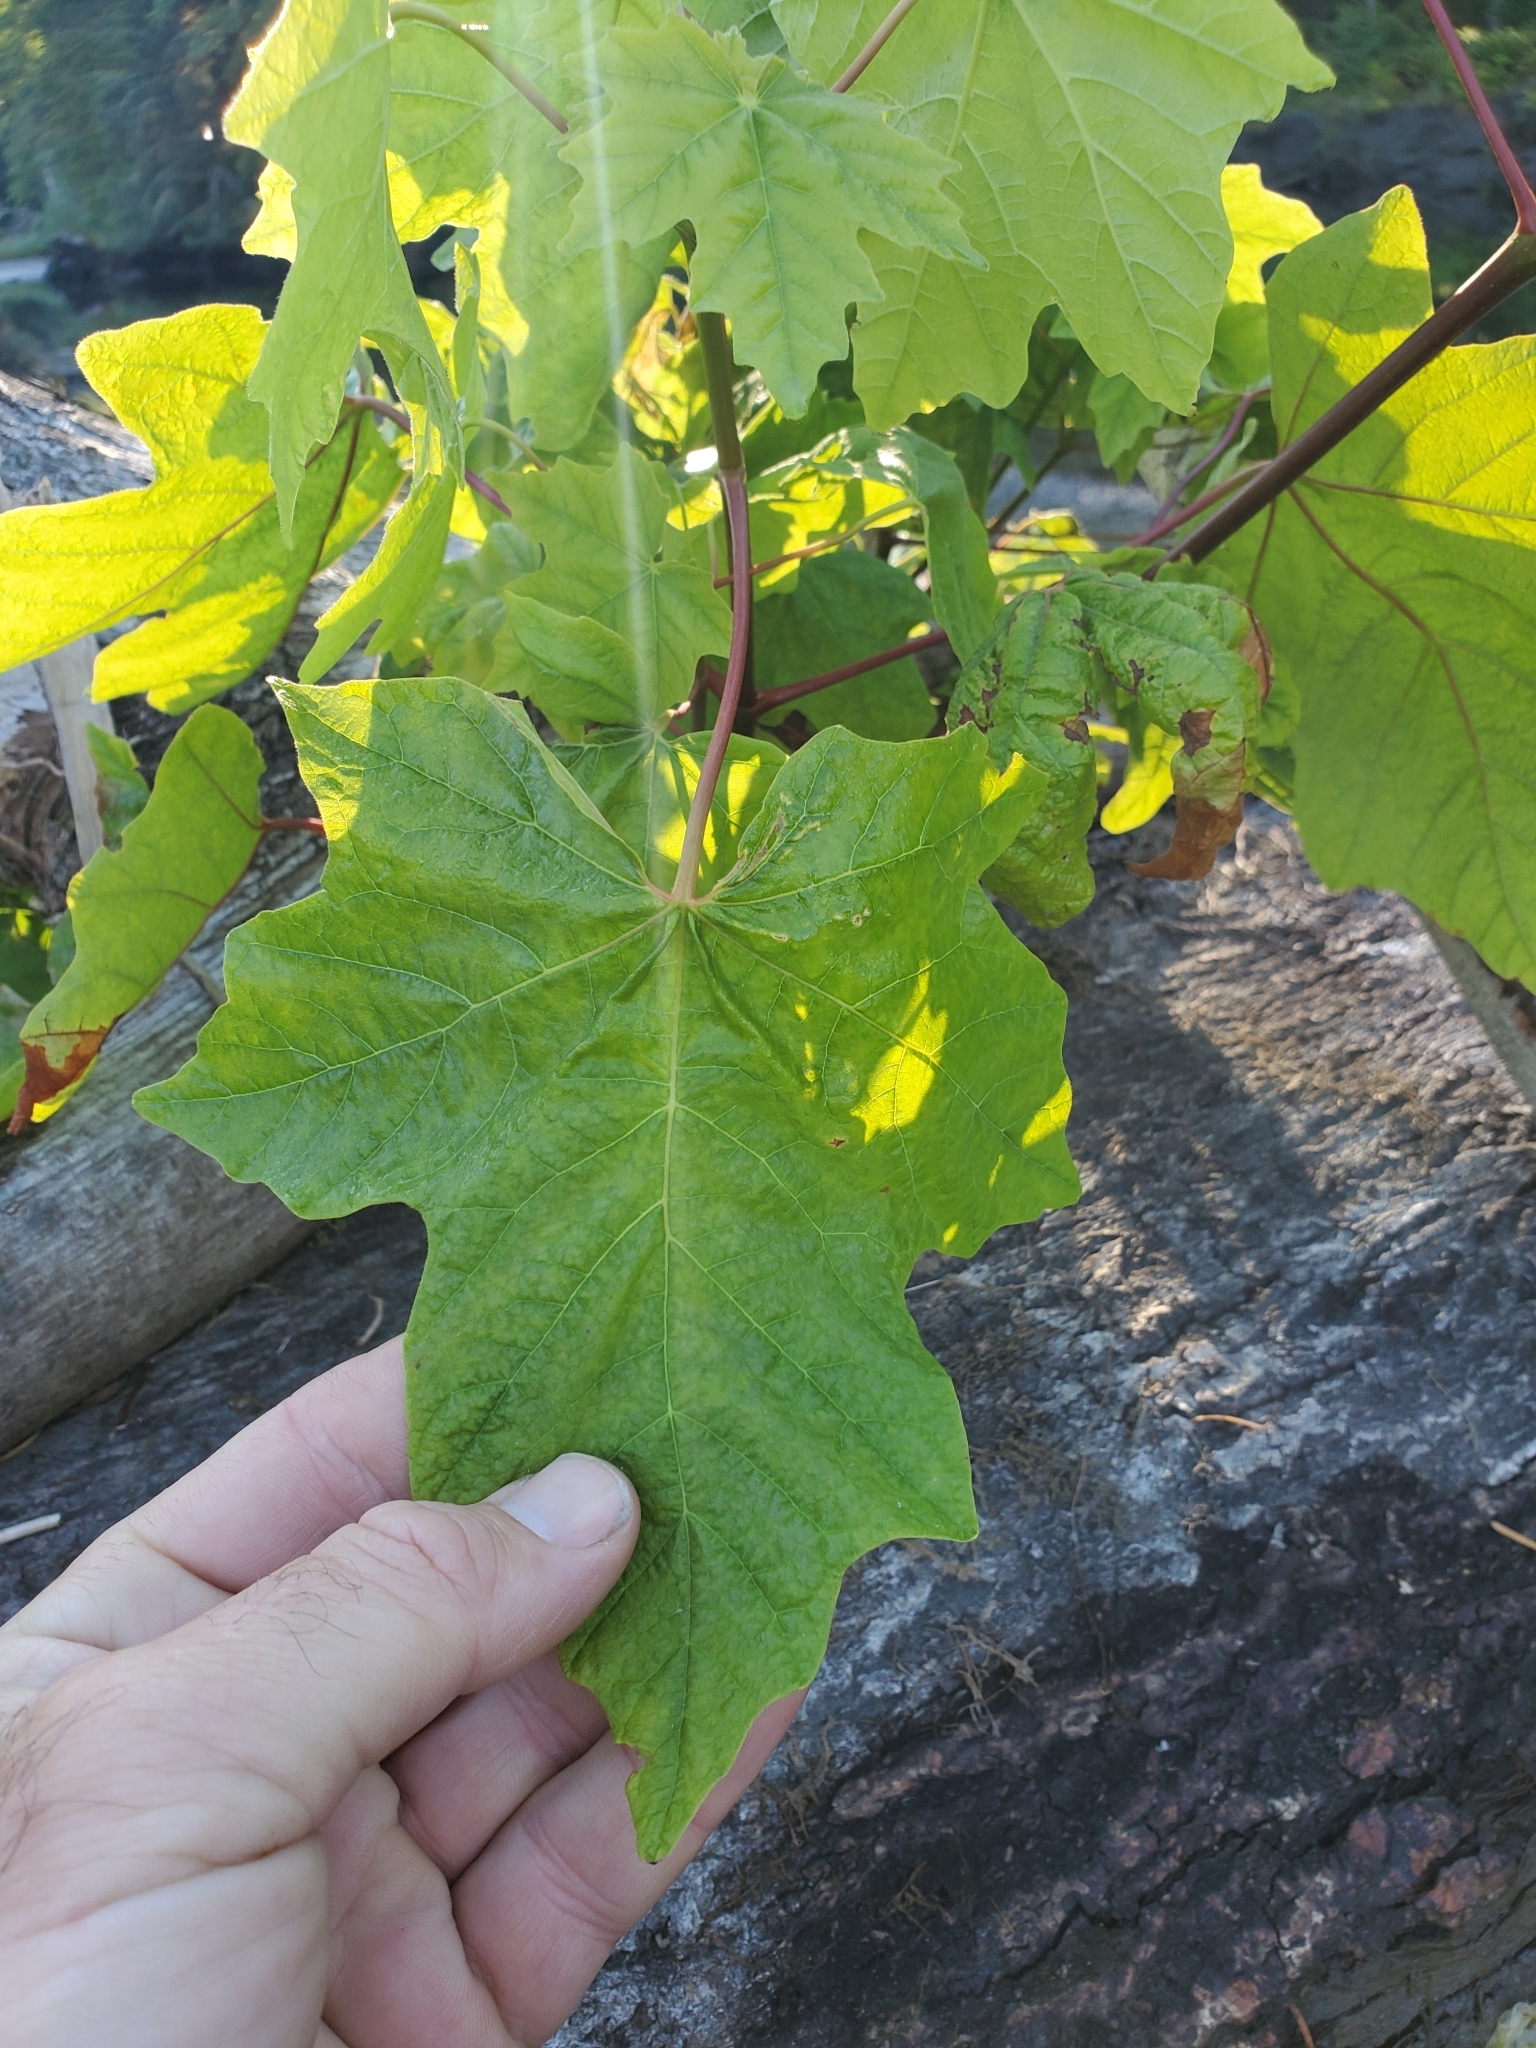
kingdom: Plantae
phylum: Tracheophyta
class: Magnoliopsida
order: Sapindales
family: Sapindaceae
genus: Acer
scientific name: Acer macrophyllum
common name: Oregon maple
